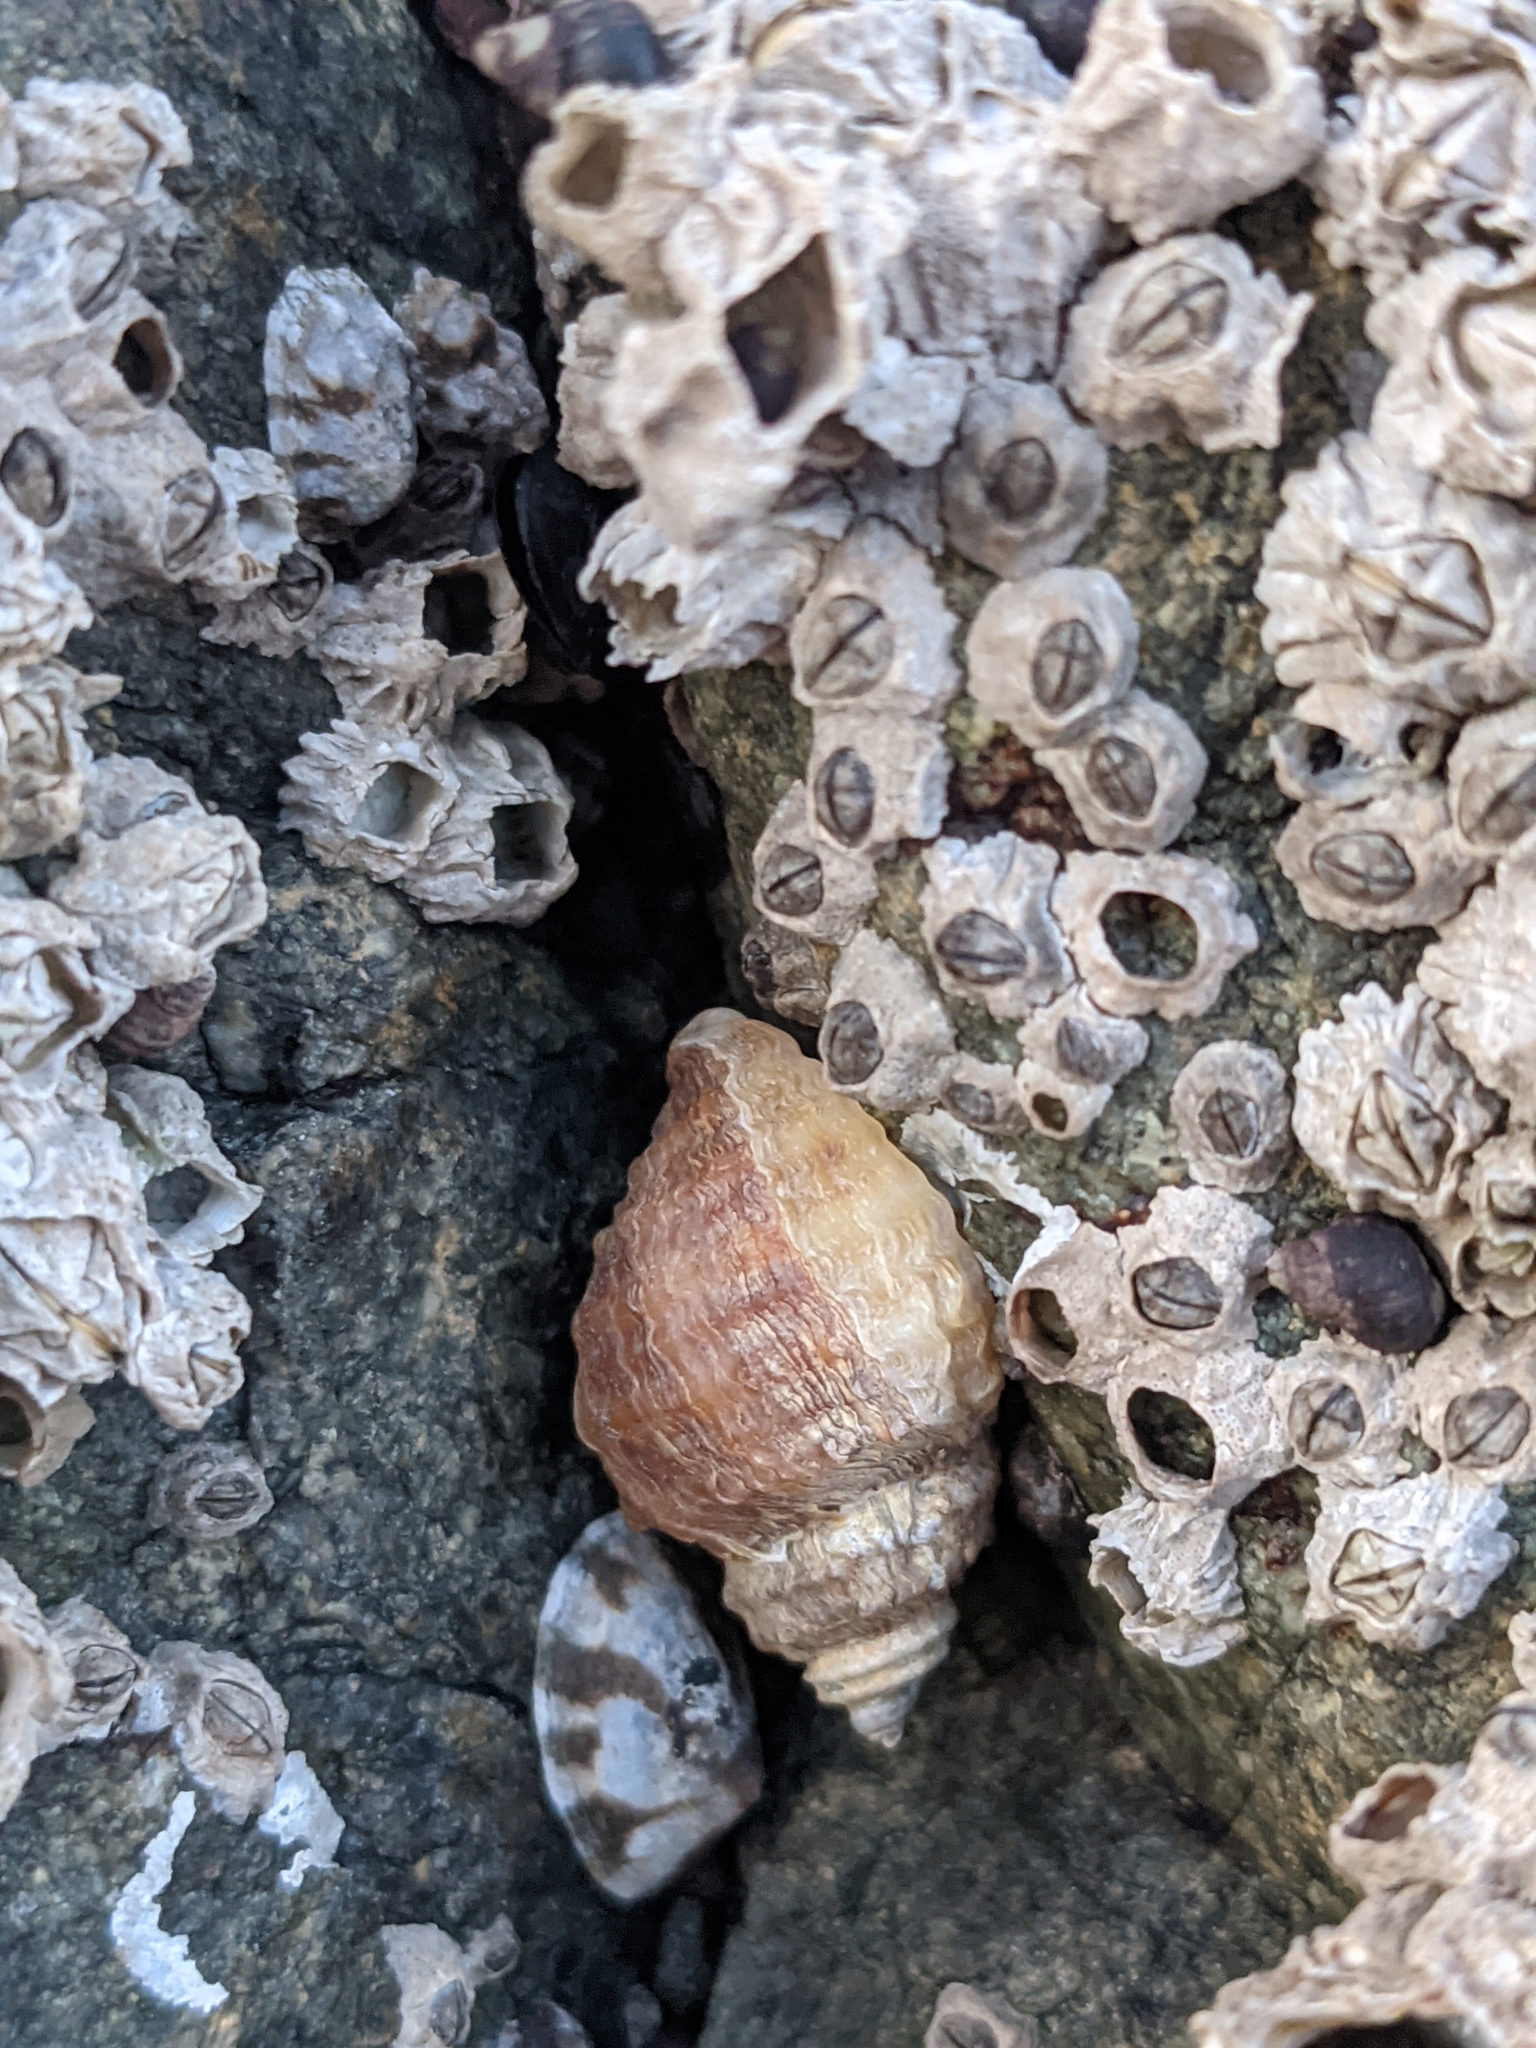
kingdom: Animalia
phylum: Mollusca
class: Gastropoda
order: Neogastropoda
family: Muricidae
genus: Nucella
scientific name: Nucella lamellosa
